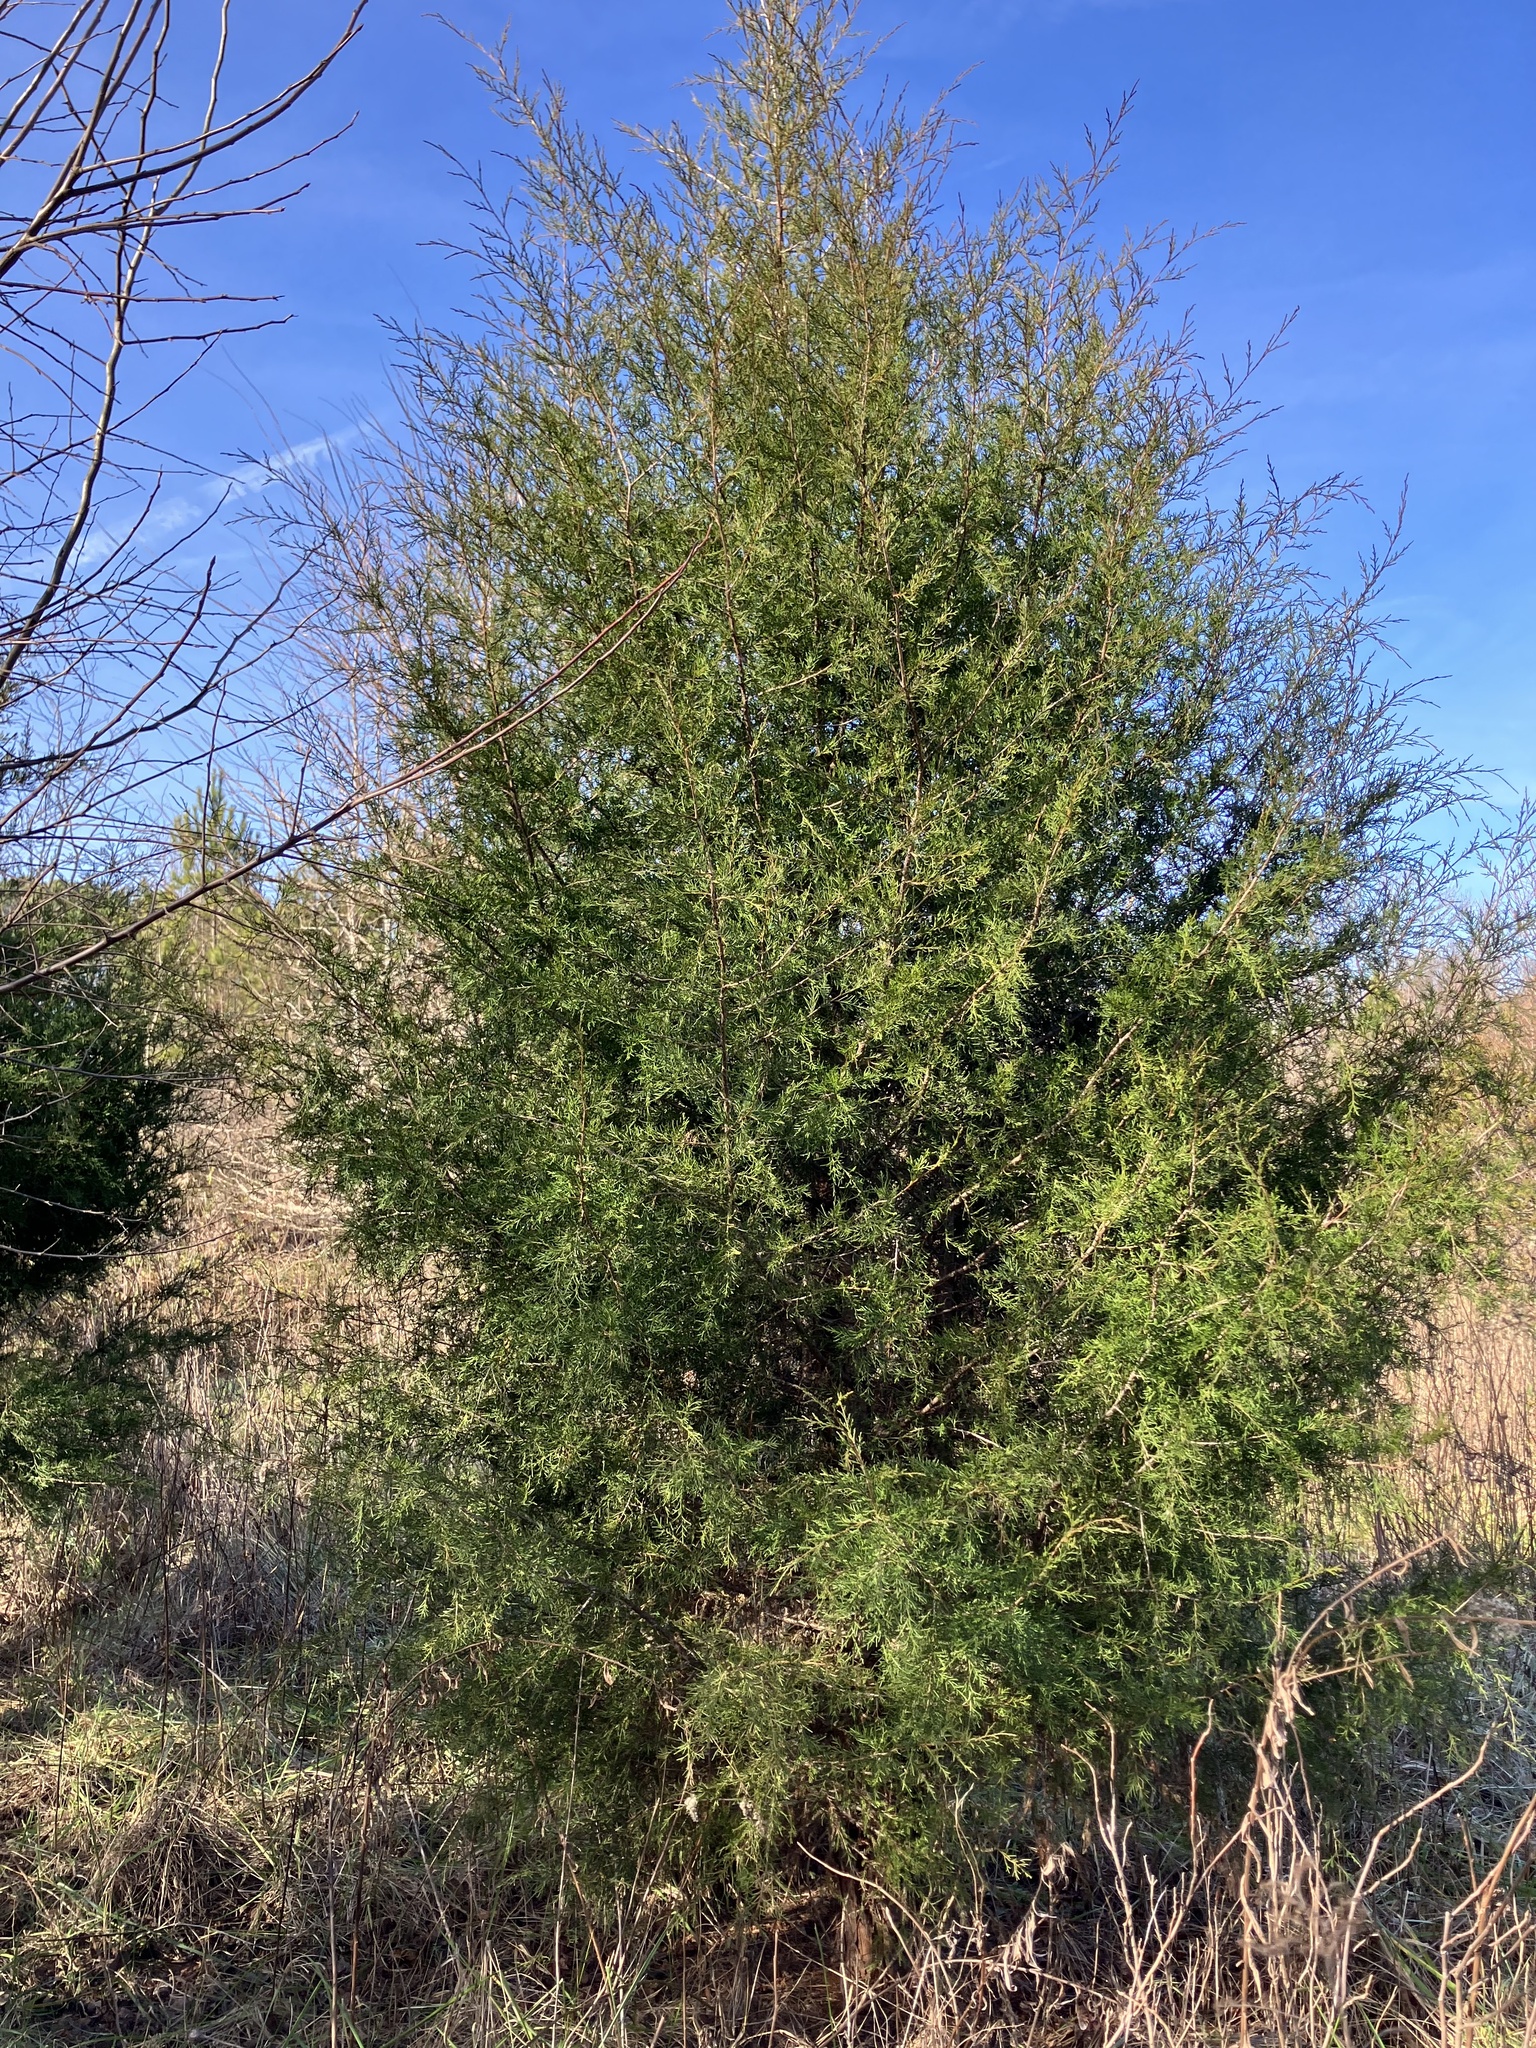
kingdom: Plantae
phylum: Tracheophyta
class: Pinopsida
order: Pinales
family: Cupressaceae
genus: Juniperus
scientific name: Juniperus virginiana
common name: Red juniper
